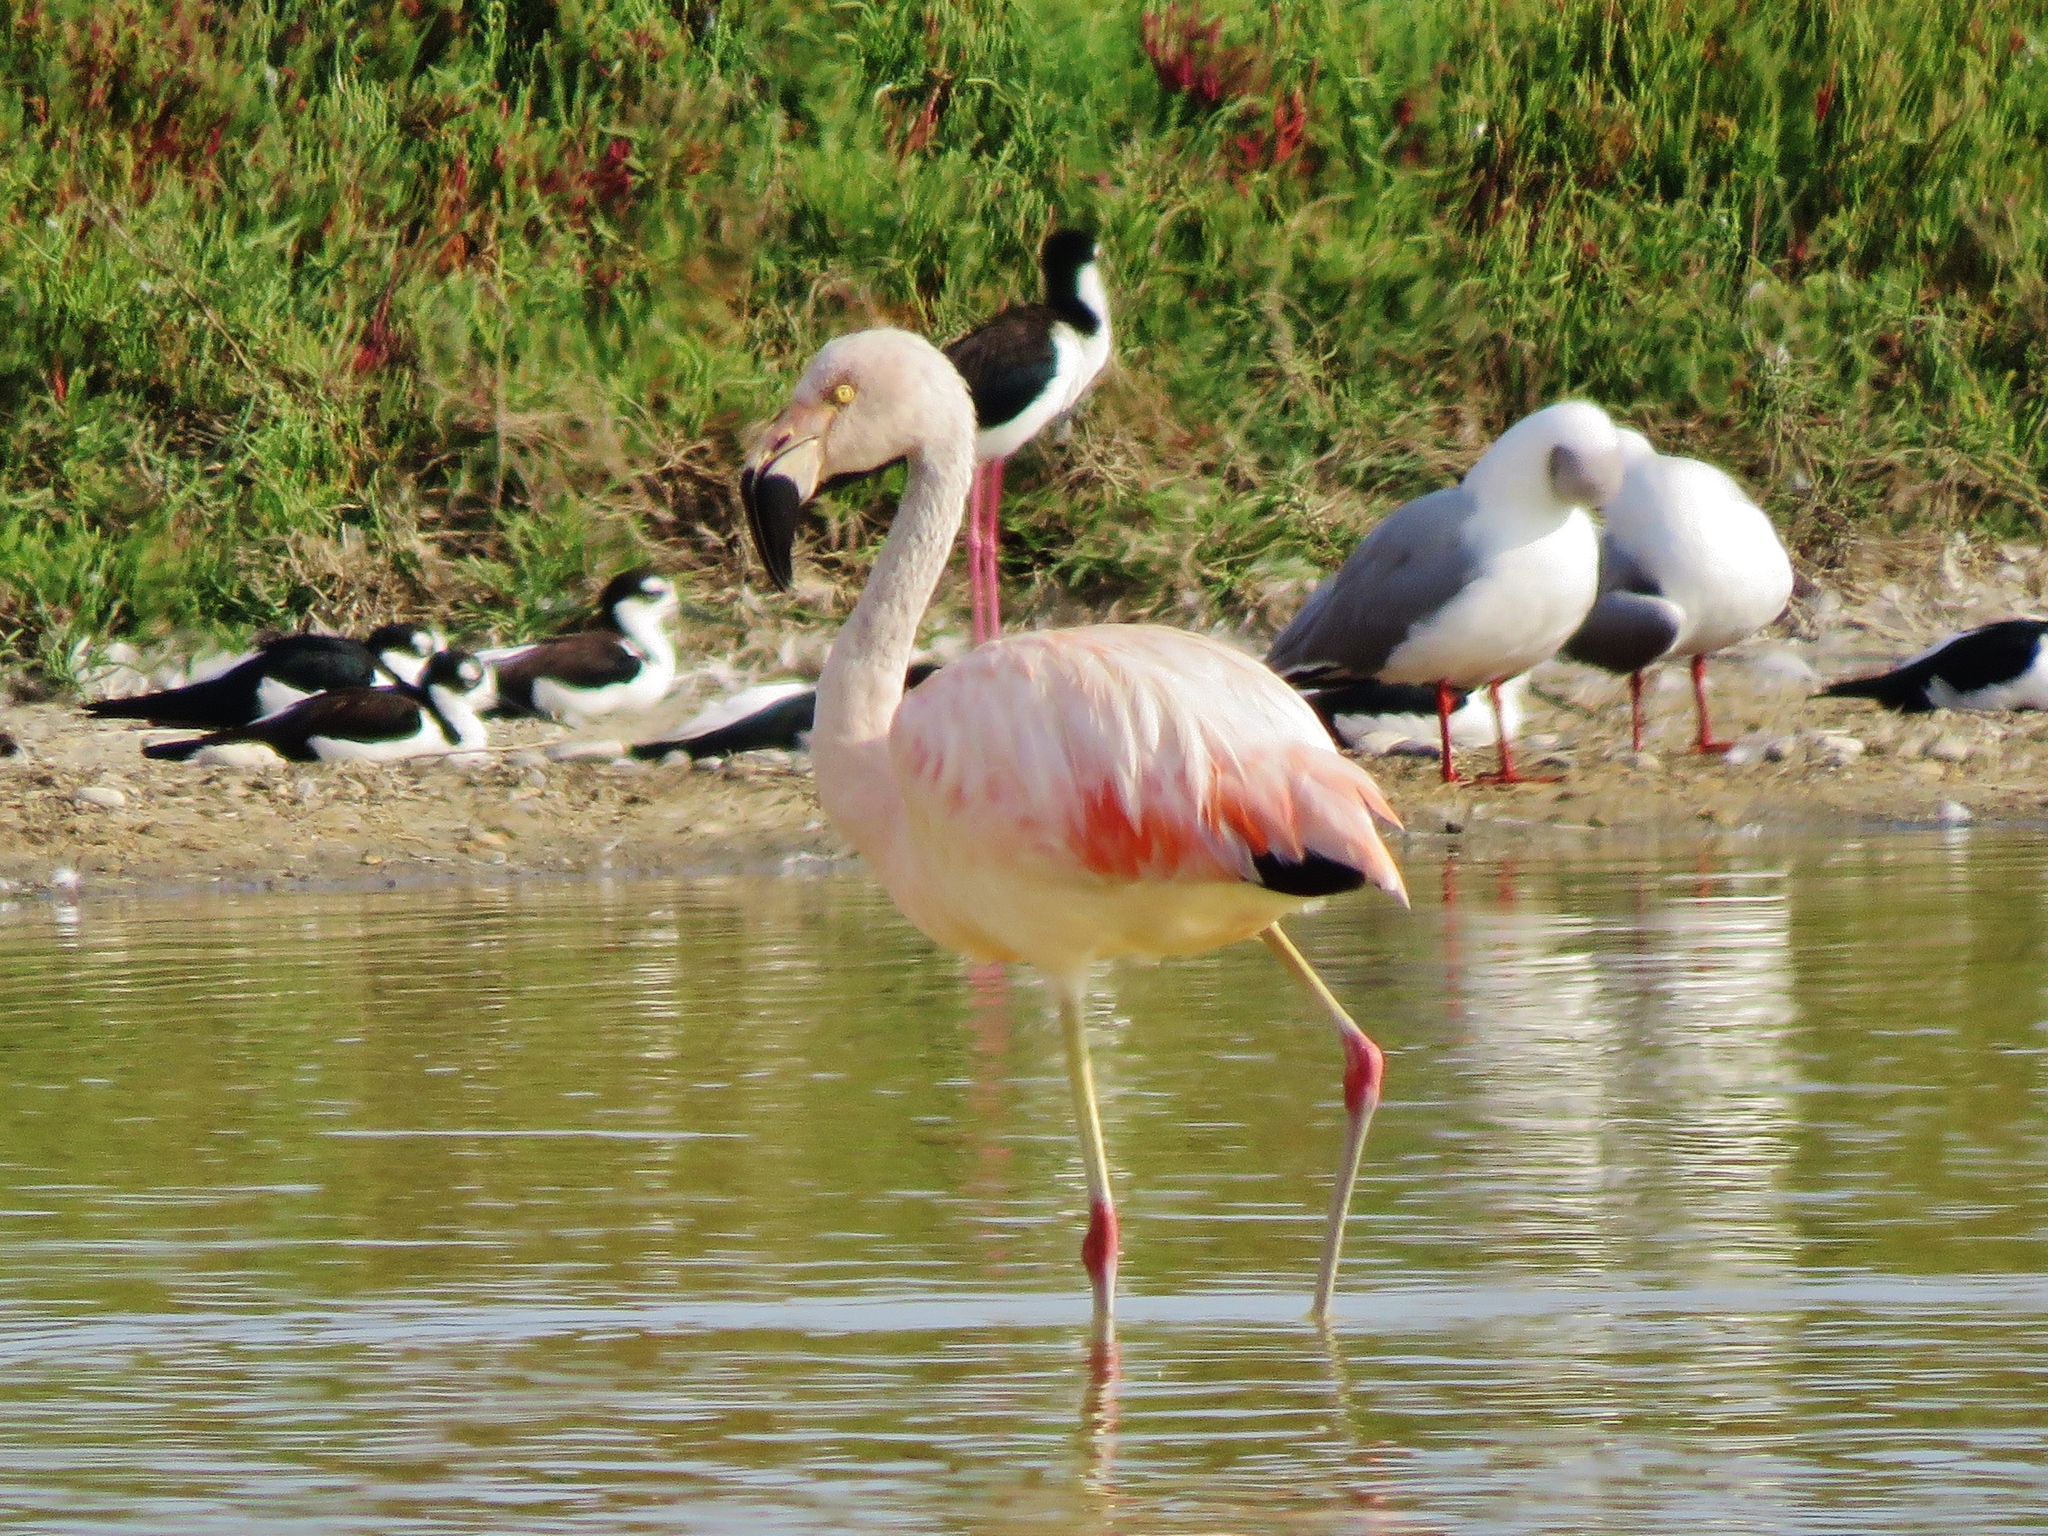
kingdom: Animalia
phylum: Chordata
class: Aves
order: Phoenicopteriformes
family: Phoenicopteridae
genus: Phoenicopterus
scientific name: Phoenicopterus chilensis
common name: Chilean flamingo
